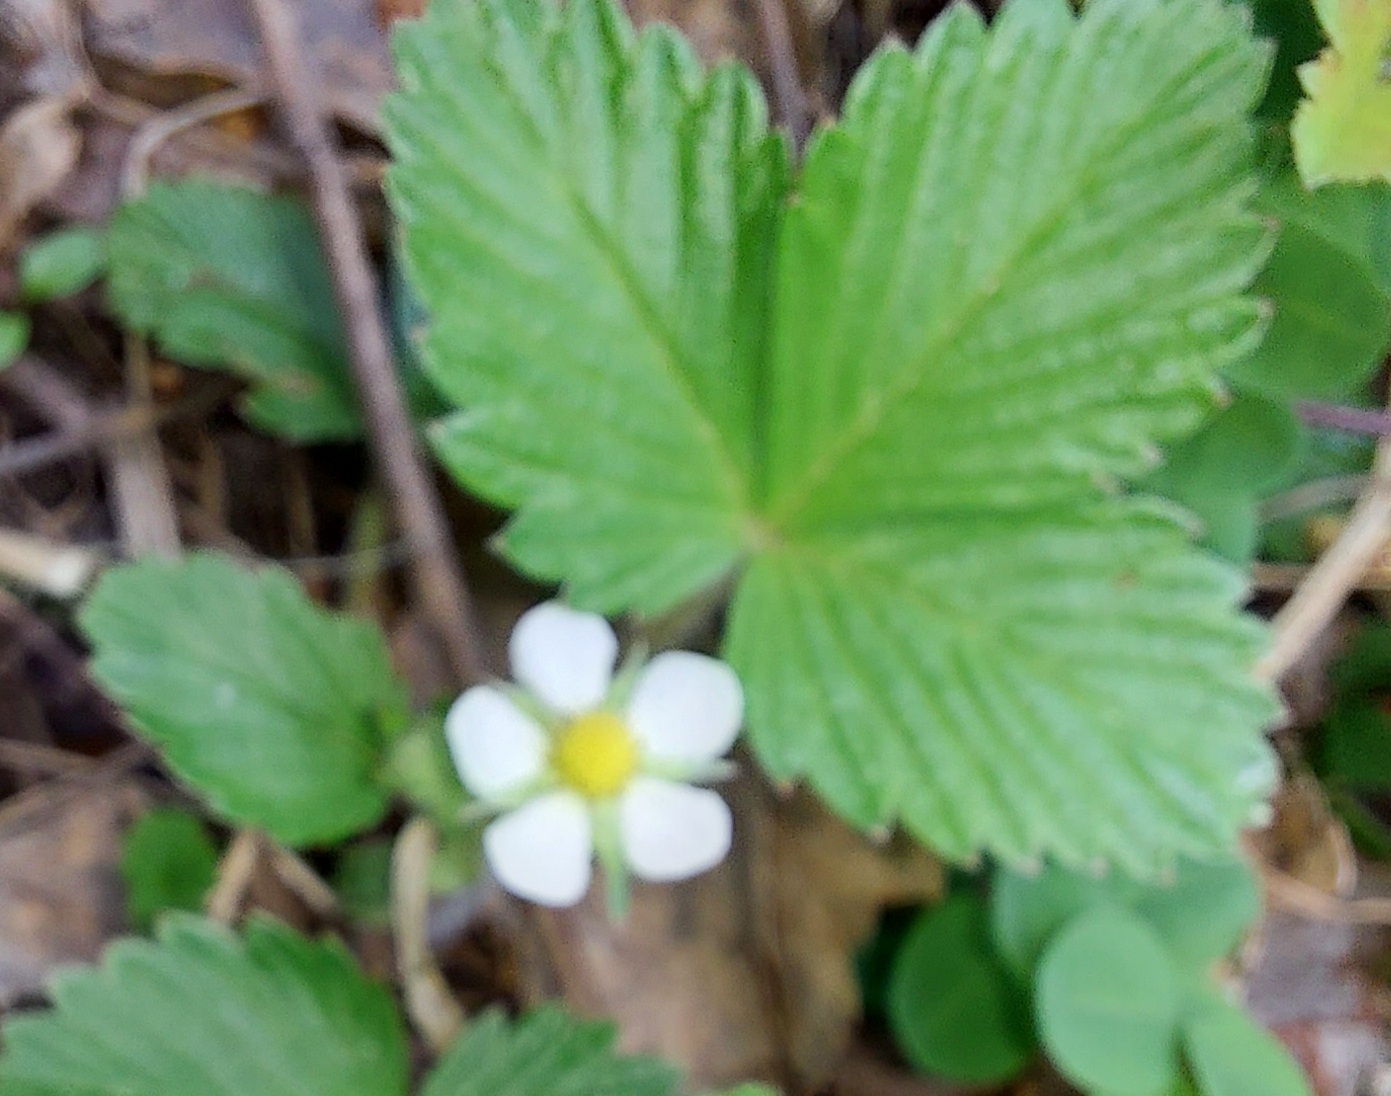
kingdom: Plantae
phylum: Tracheophyta
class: Magnoliopsida
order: Rosales
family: Rosaceae
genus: Fragaria
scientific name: Fragaria vesca
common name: Wild strawberry
